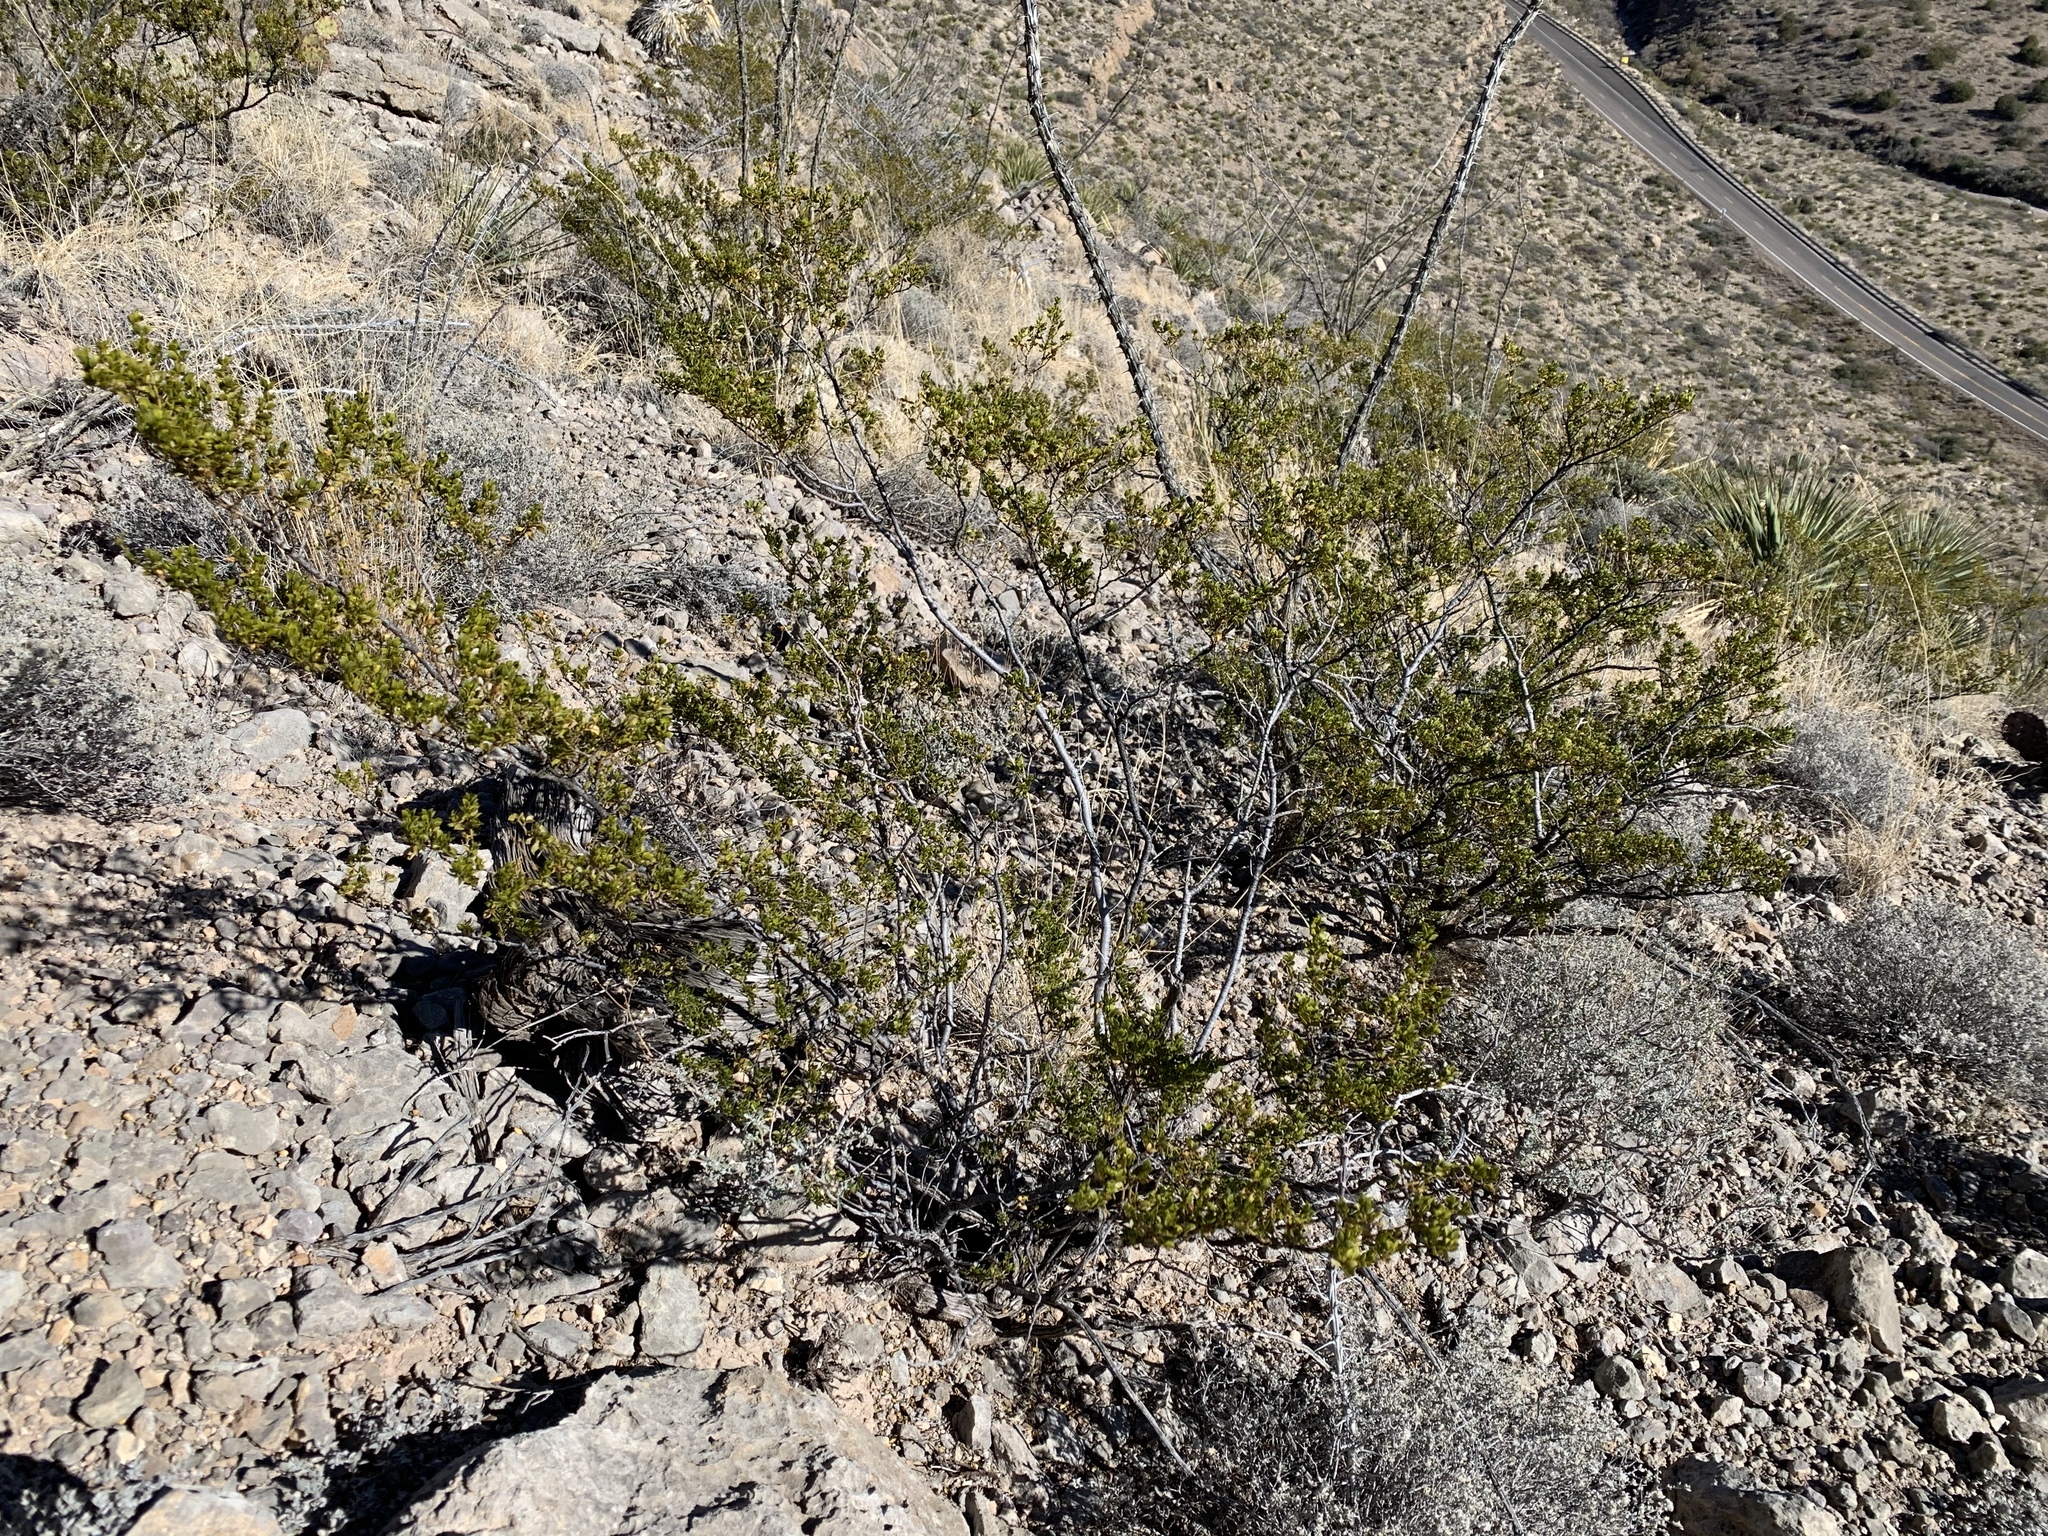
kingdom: Plantae
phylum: Tracheophyta
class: Magnoliopsida
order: Zygophyllales
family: Zygophyllaceae
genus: Larrea
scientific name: Larrea tridentata
